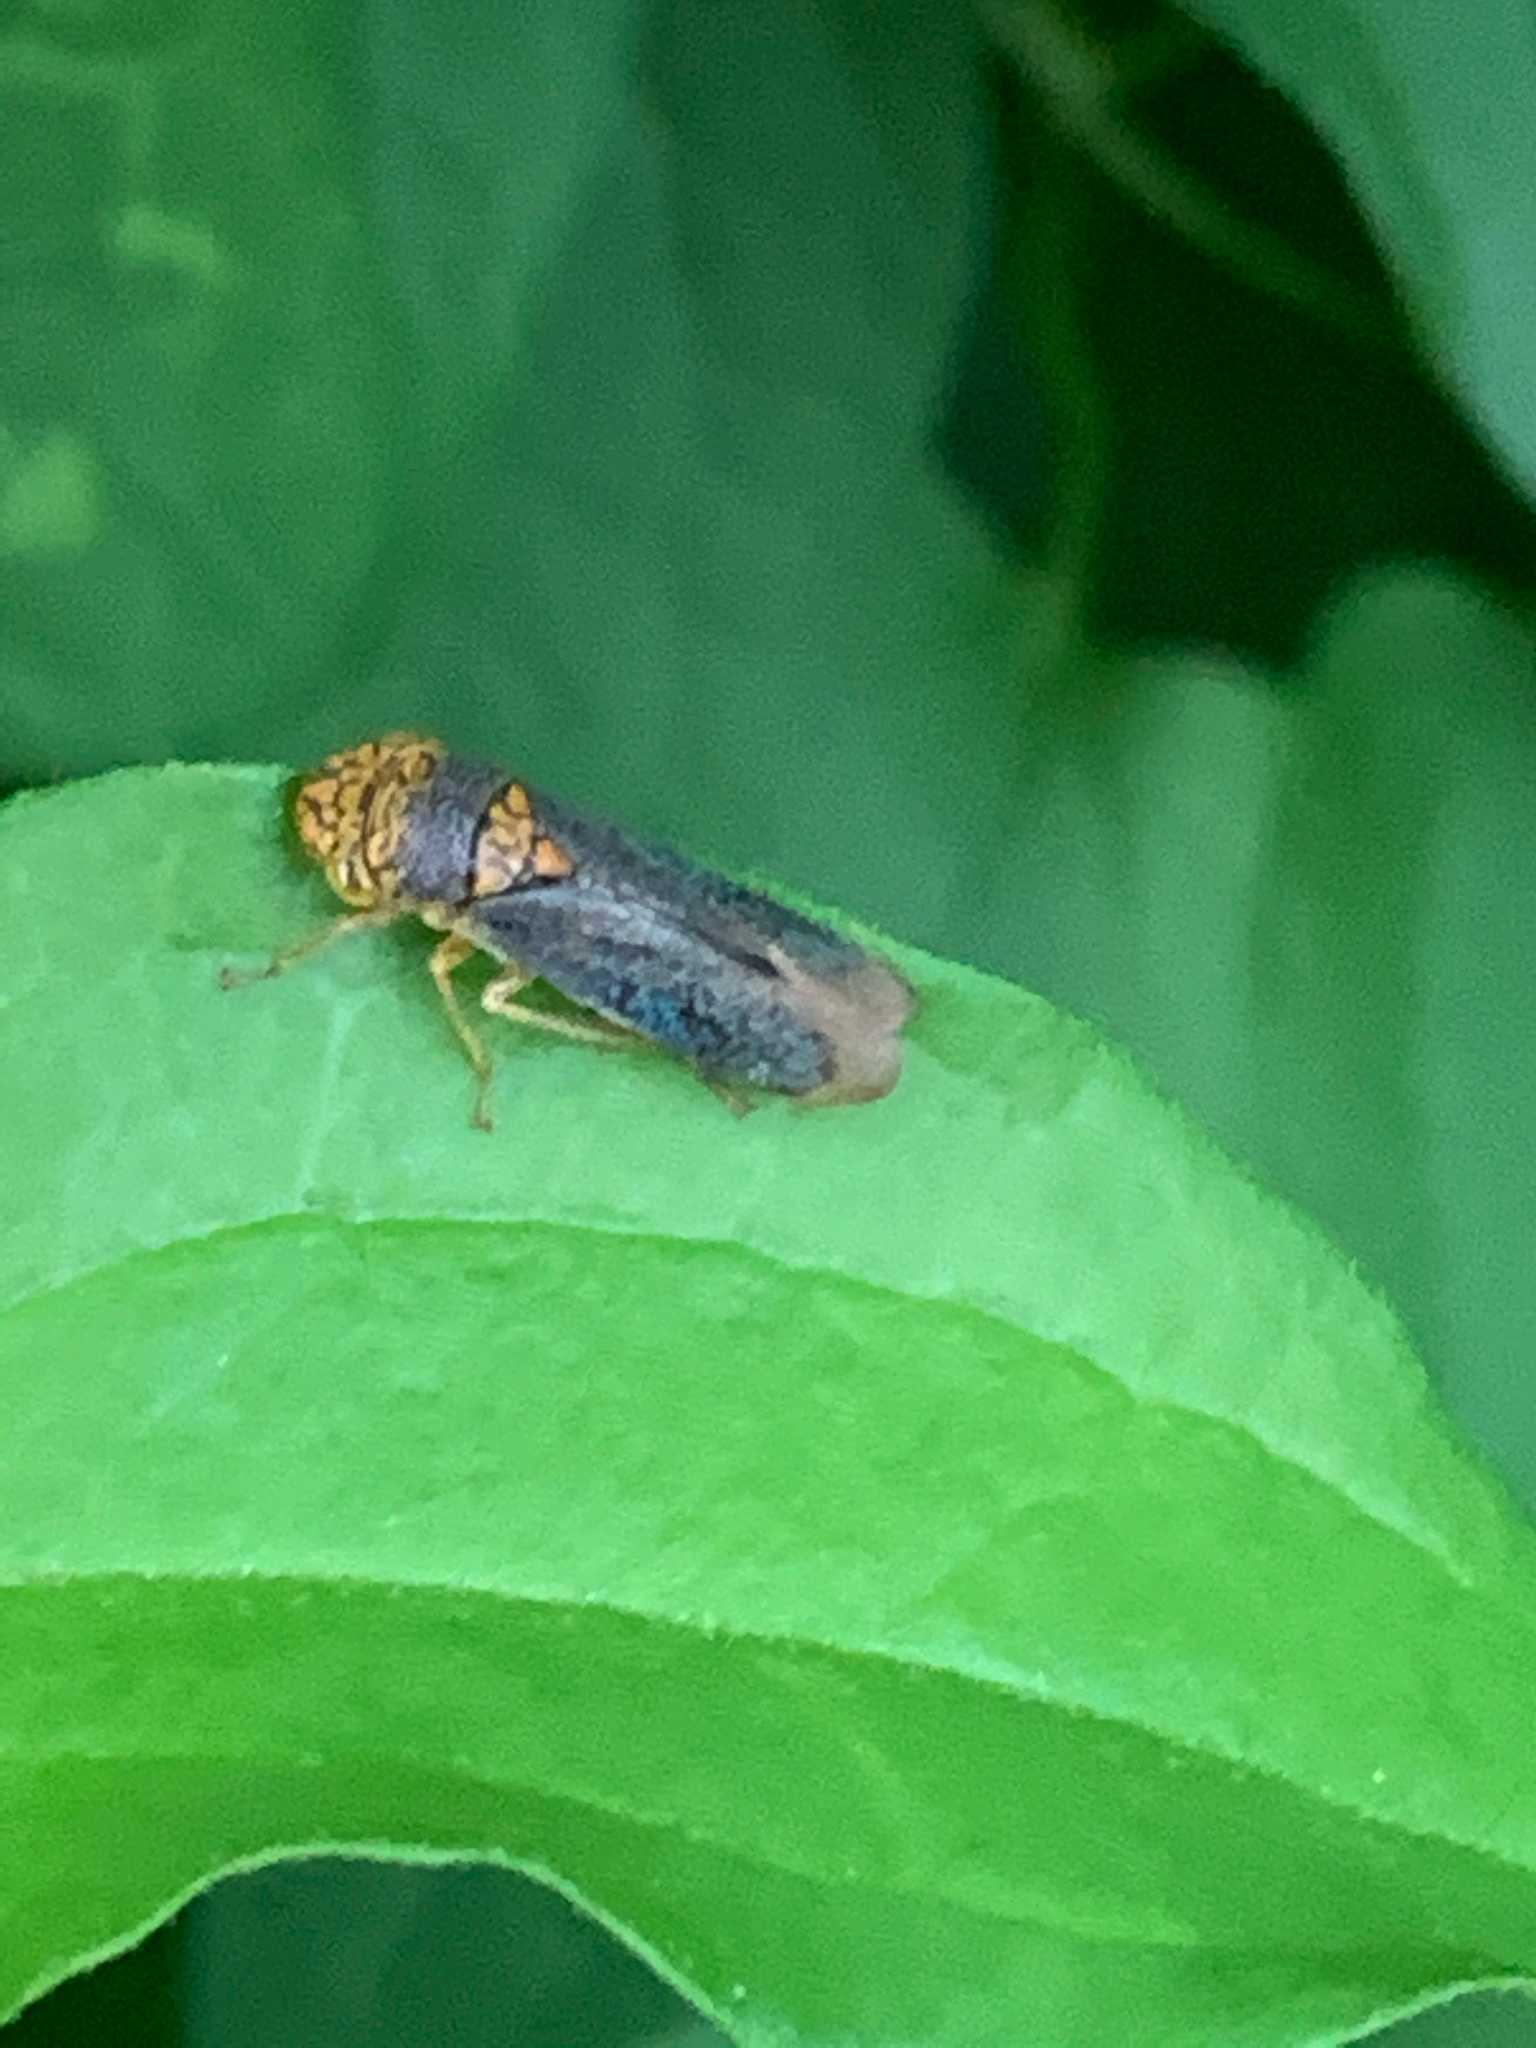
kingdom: Animalia
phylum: Arthropoda
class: Insecta
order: Hemiptera
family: Cicadellidae
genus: Oncometopia
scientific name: Oncometopia orbona
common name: Broad-headed sharpshooter
